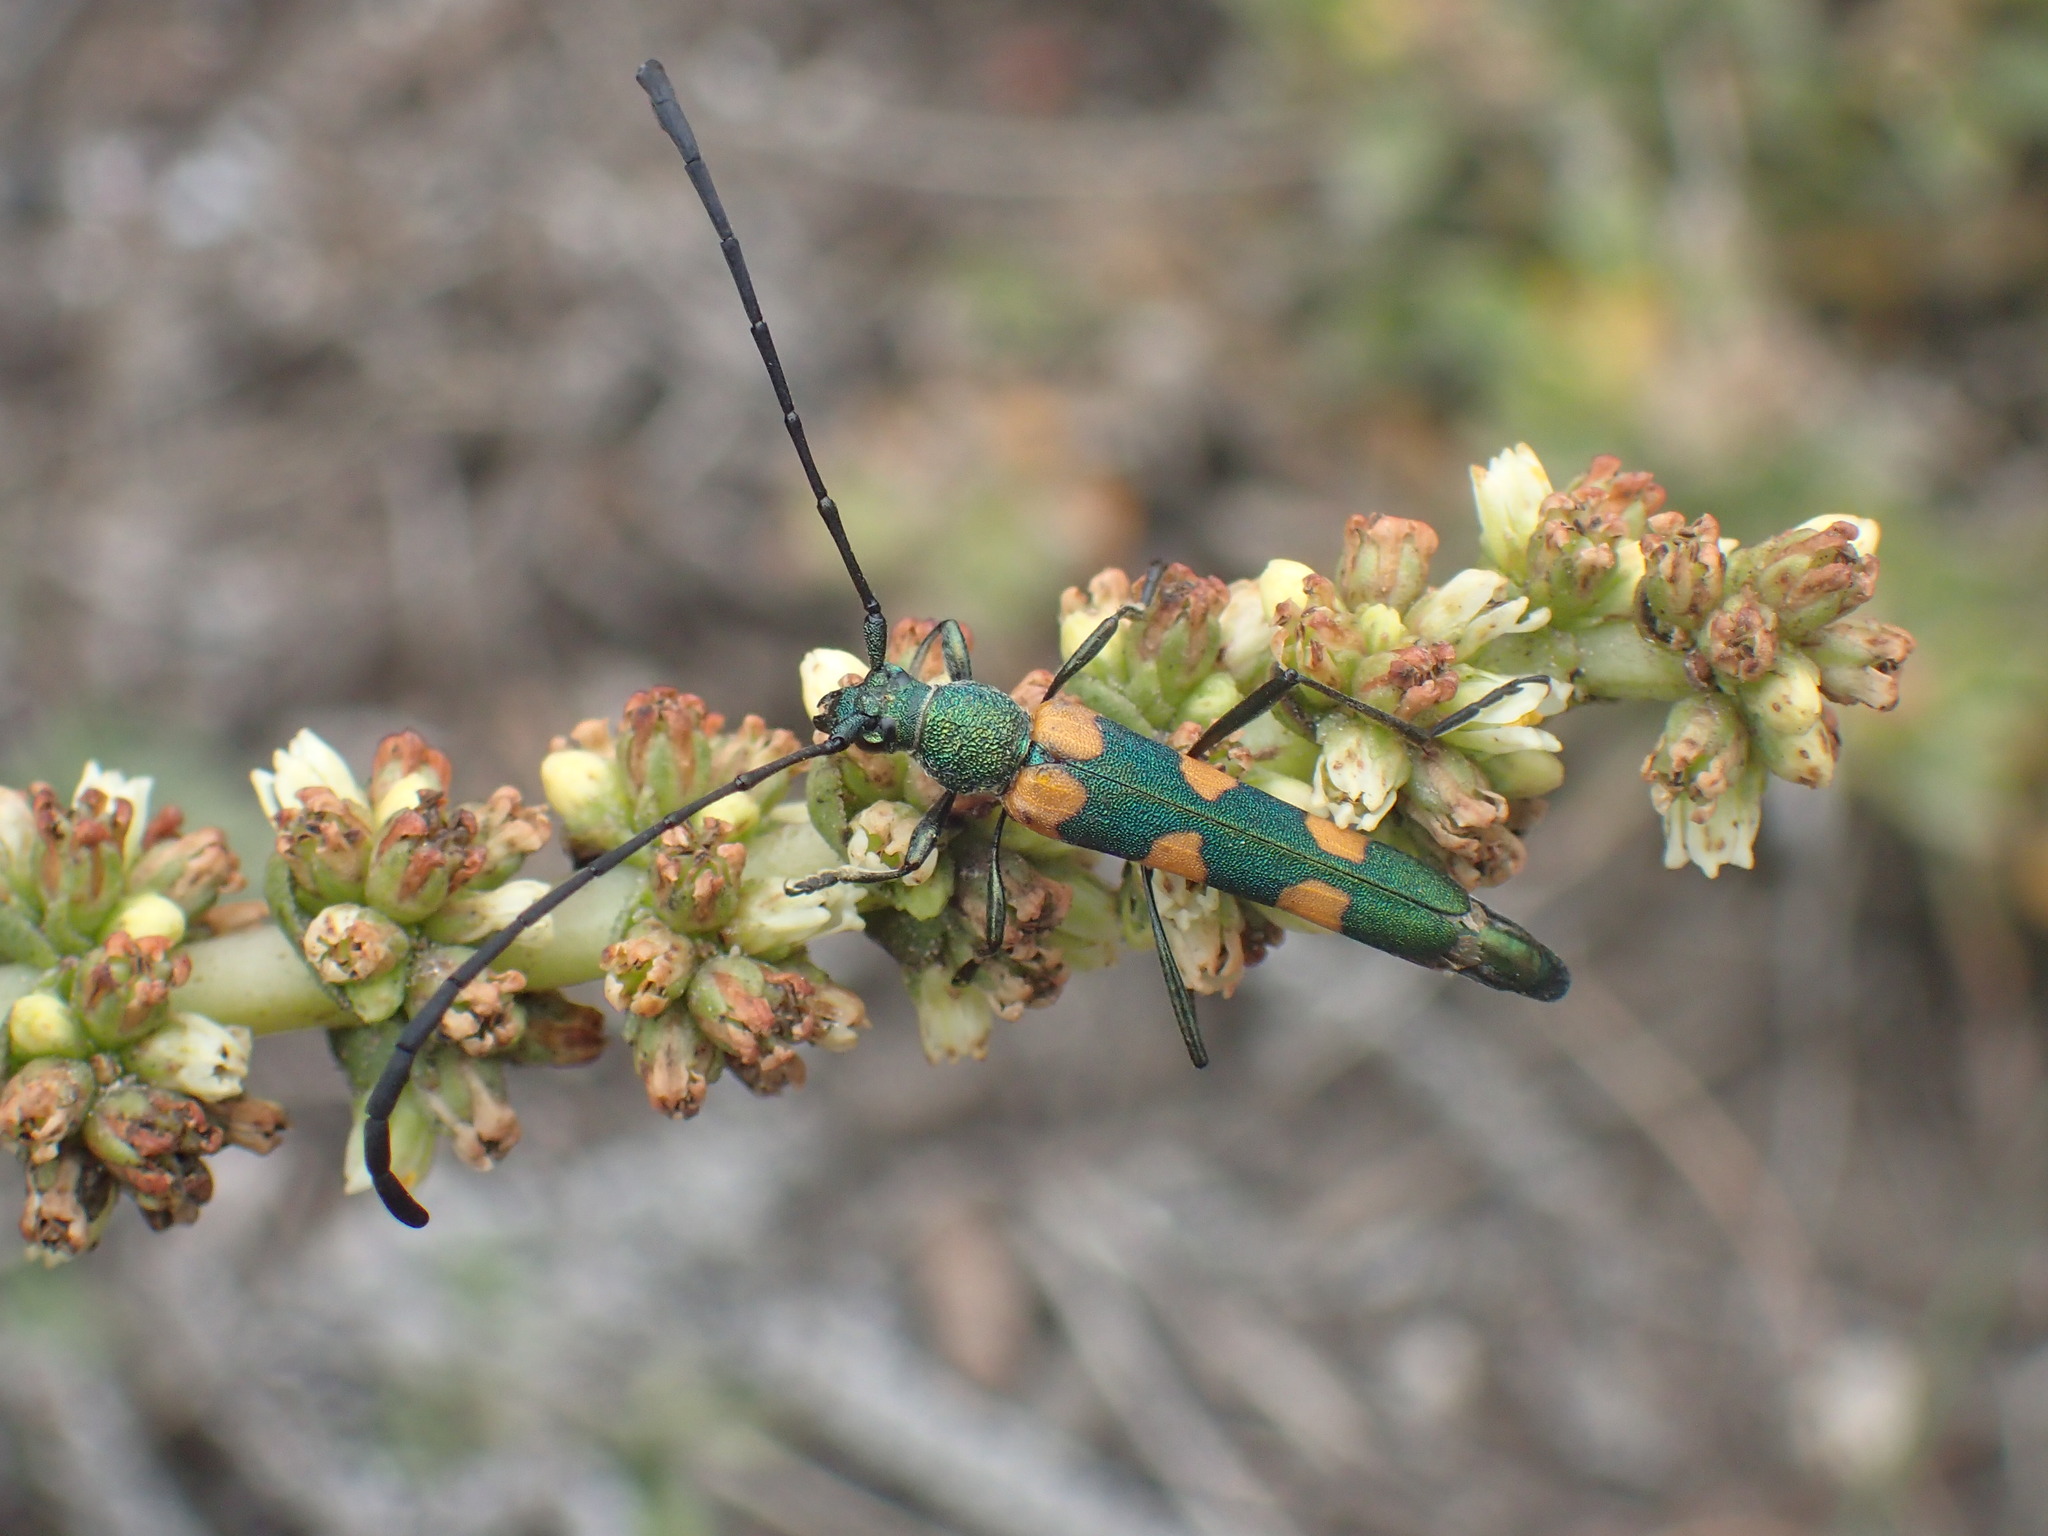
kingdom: Animalia
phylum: Arthropoda
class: Insecta
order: Coleoptera
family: Cerambycidae
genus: Anubis
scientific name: Anubis clavicornis
